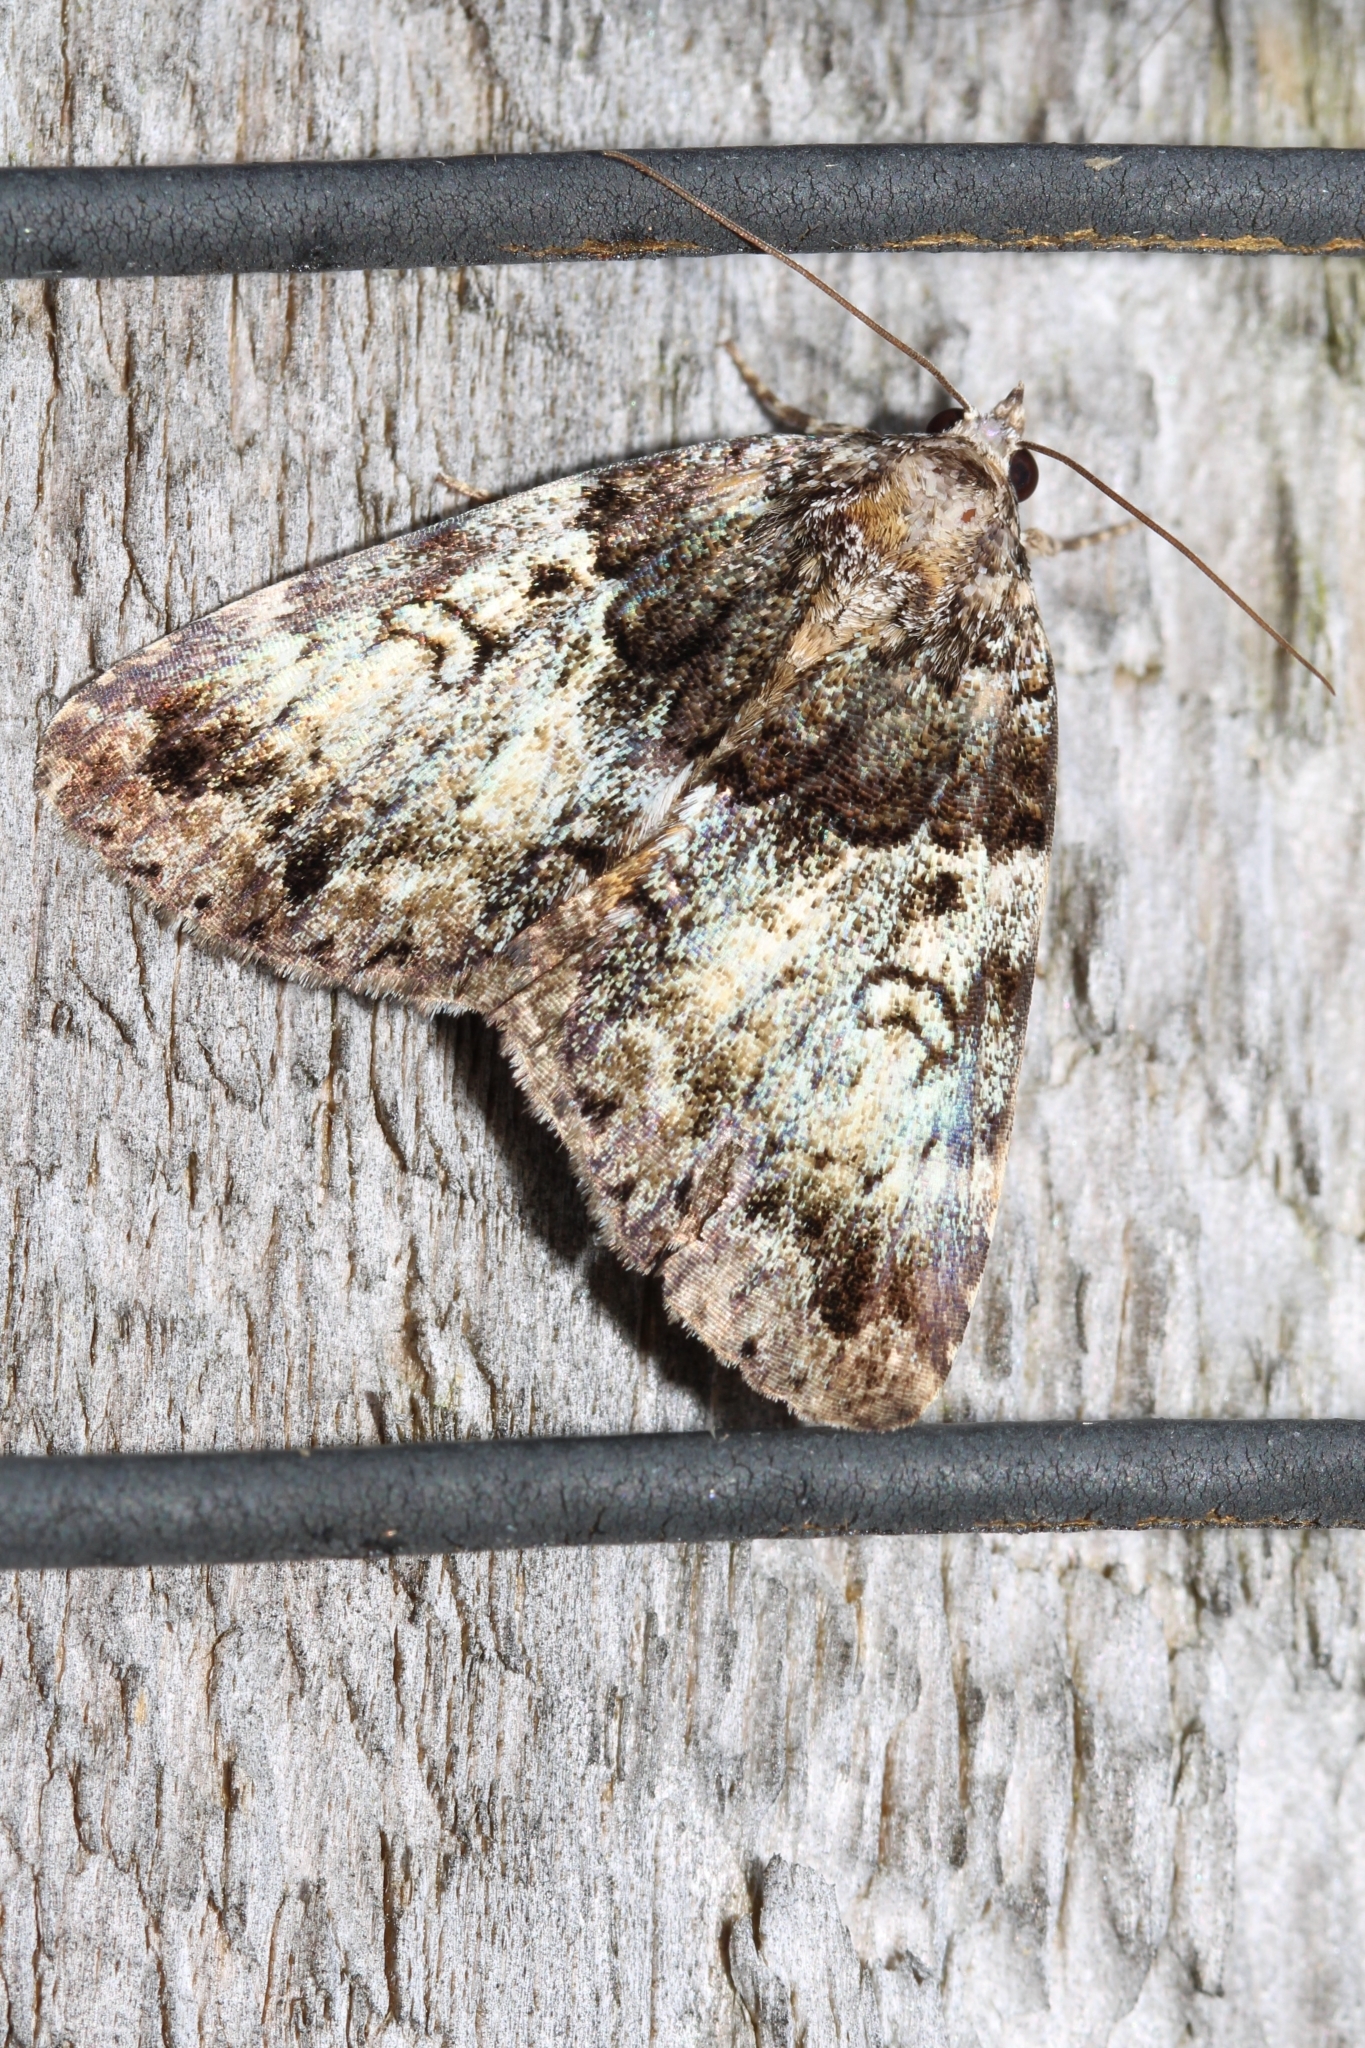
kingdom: Animalia
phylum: Arthropoda
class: Insecta
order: Lepidoptera
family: Erebidae
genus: Allotria
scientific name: Allotria elonympha
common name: False underwing
